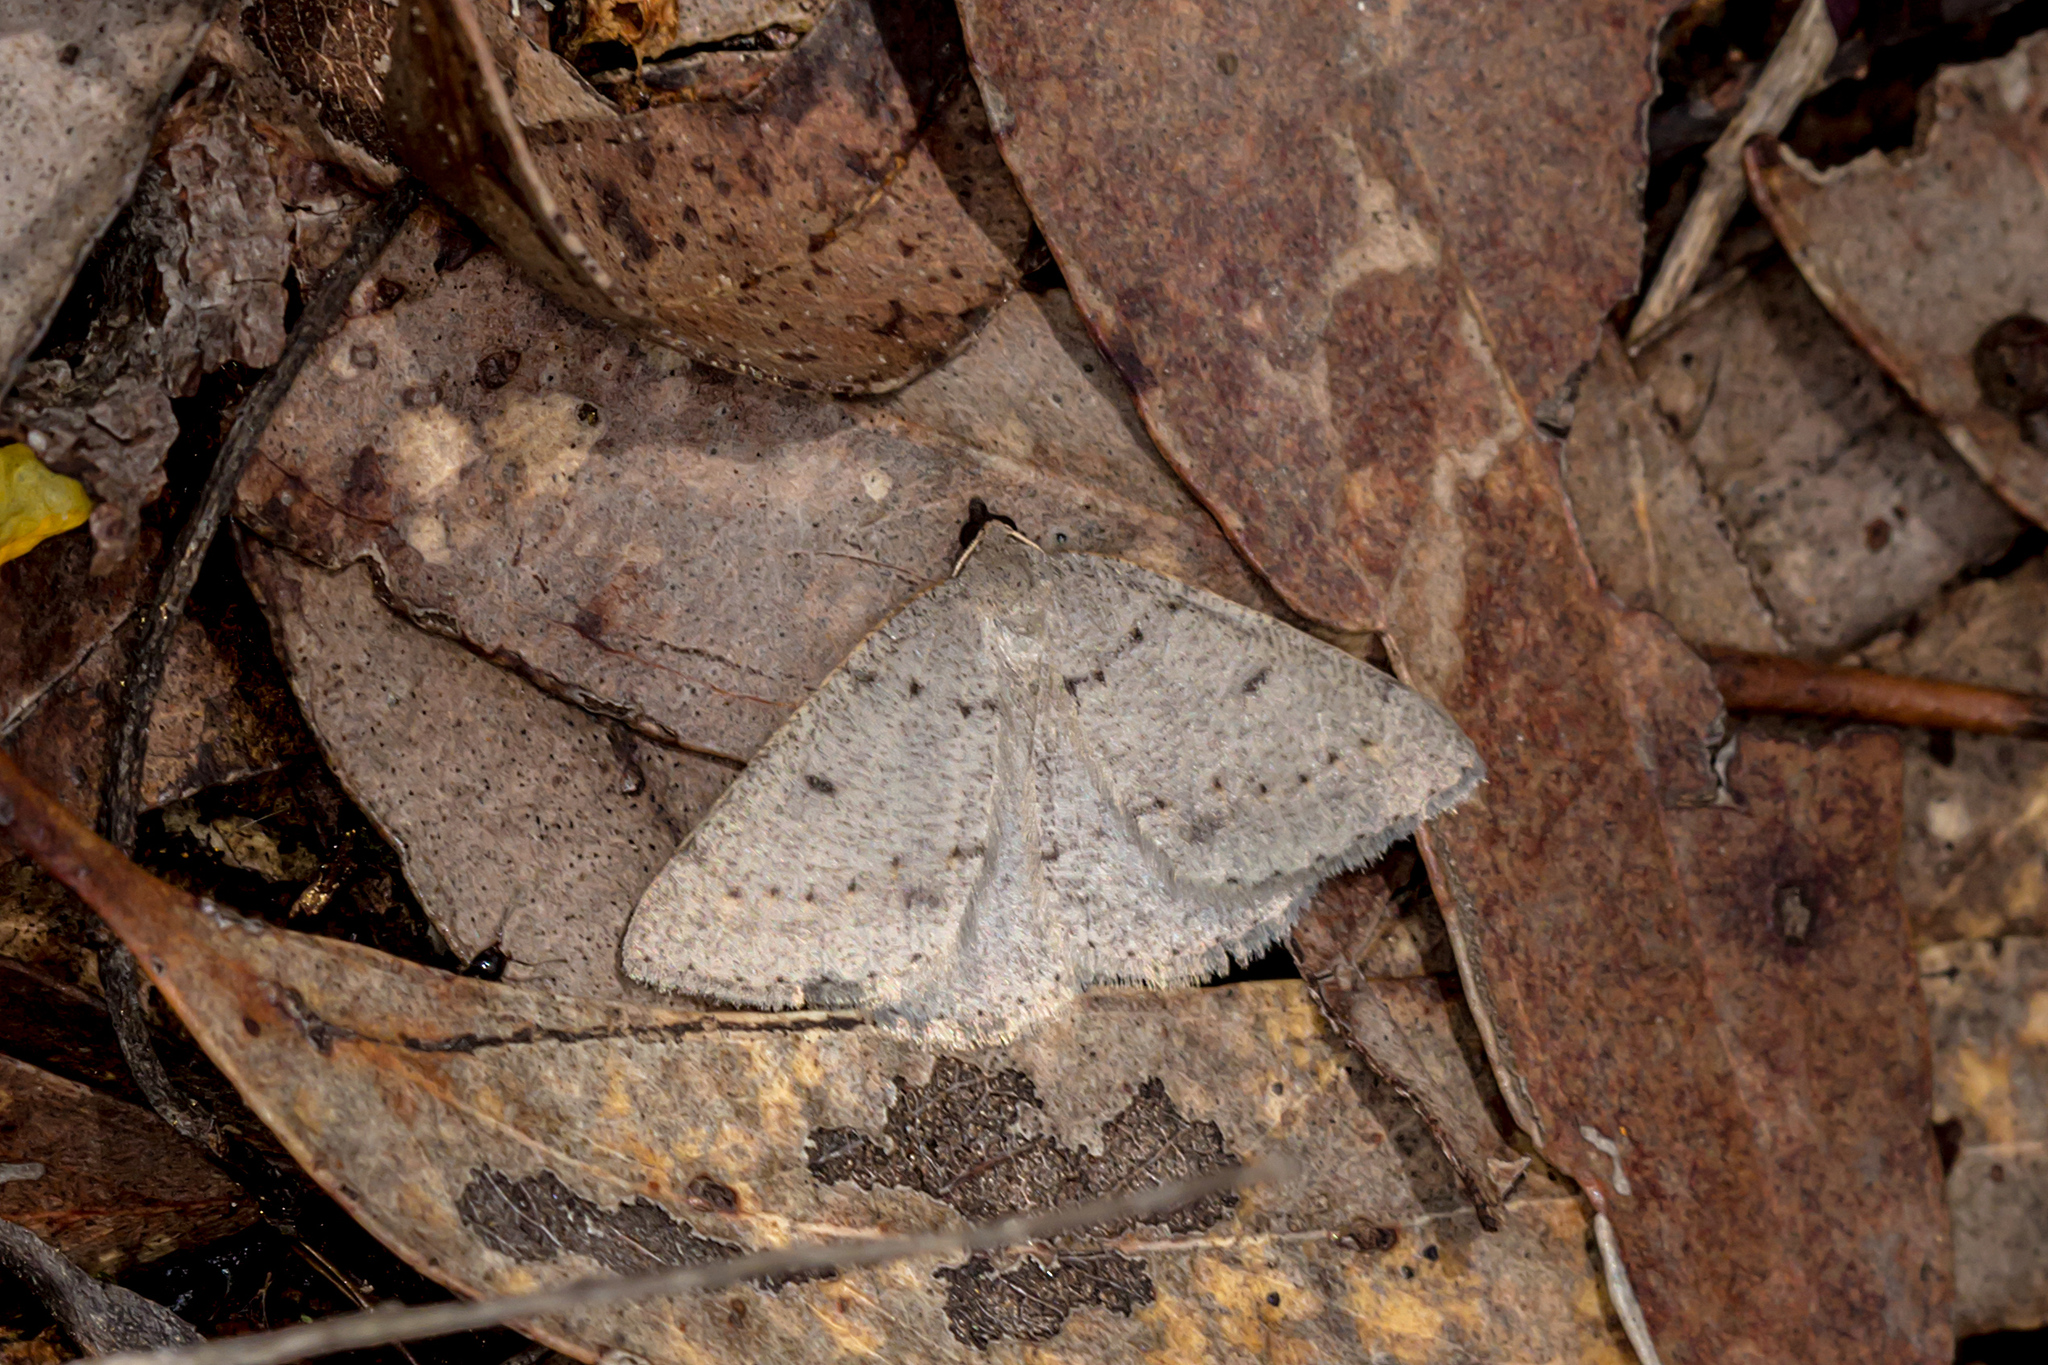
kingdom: Animalia
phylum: Arthropoda
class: Insecta
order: Lepidoptera
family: Geometridae
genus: Taxeotis
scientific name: Taxeotis reserata
